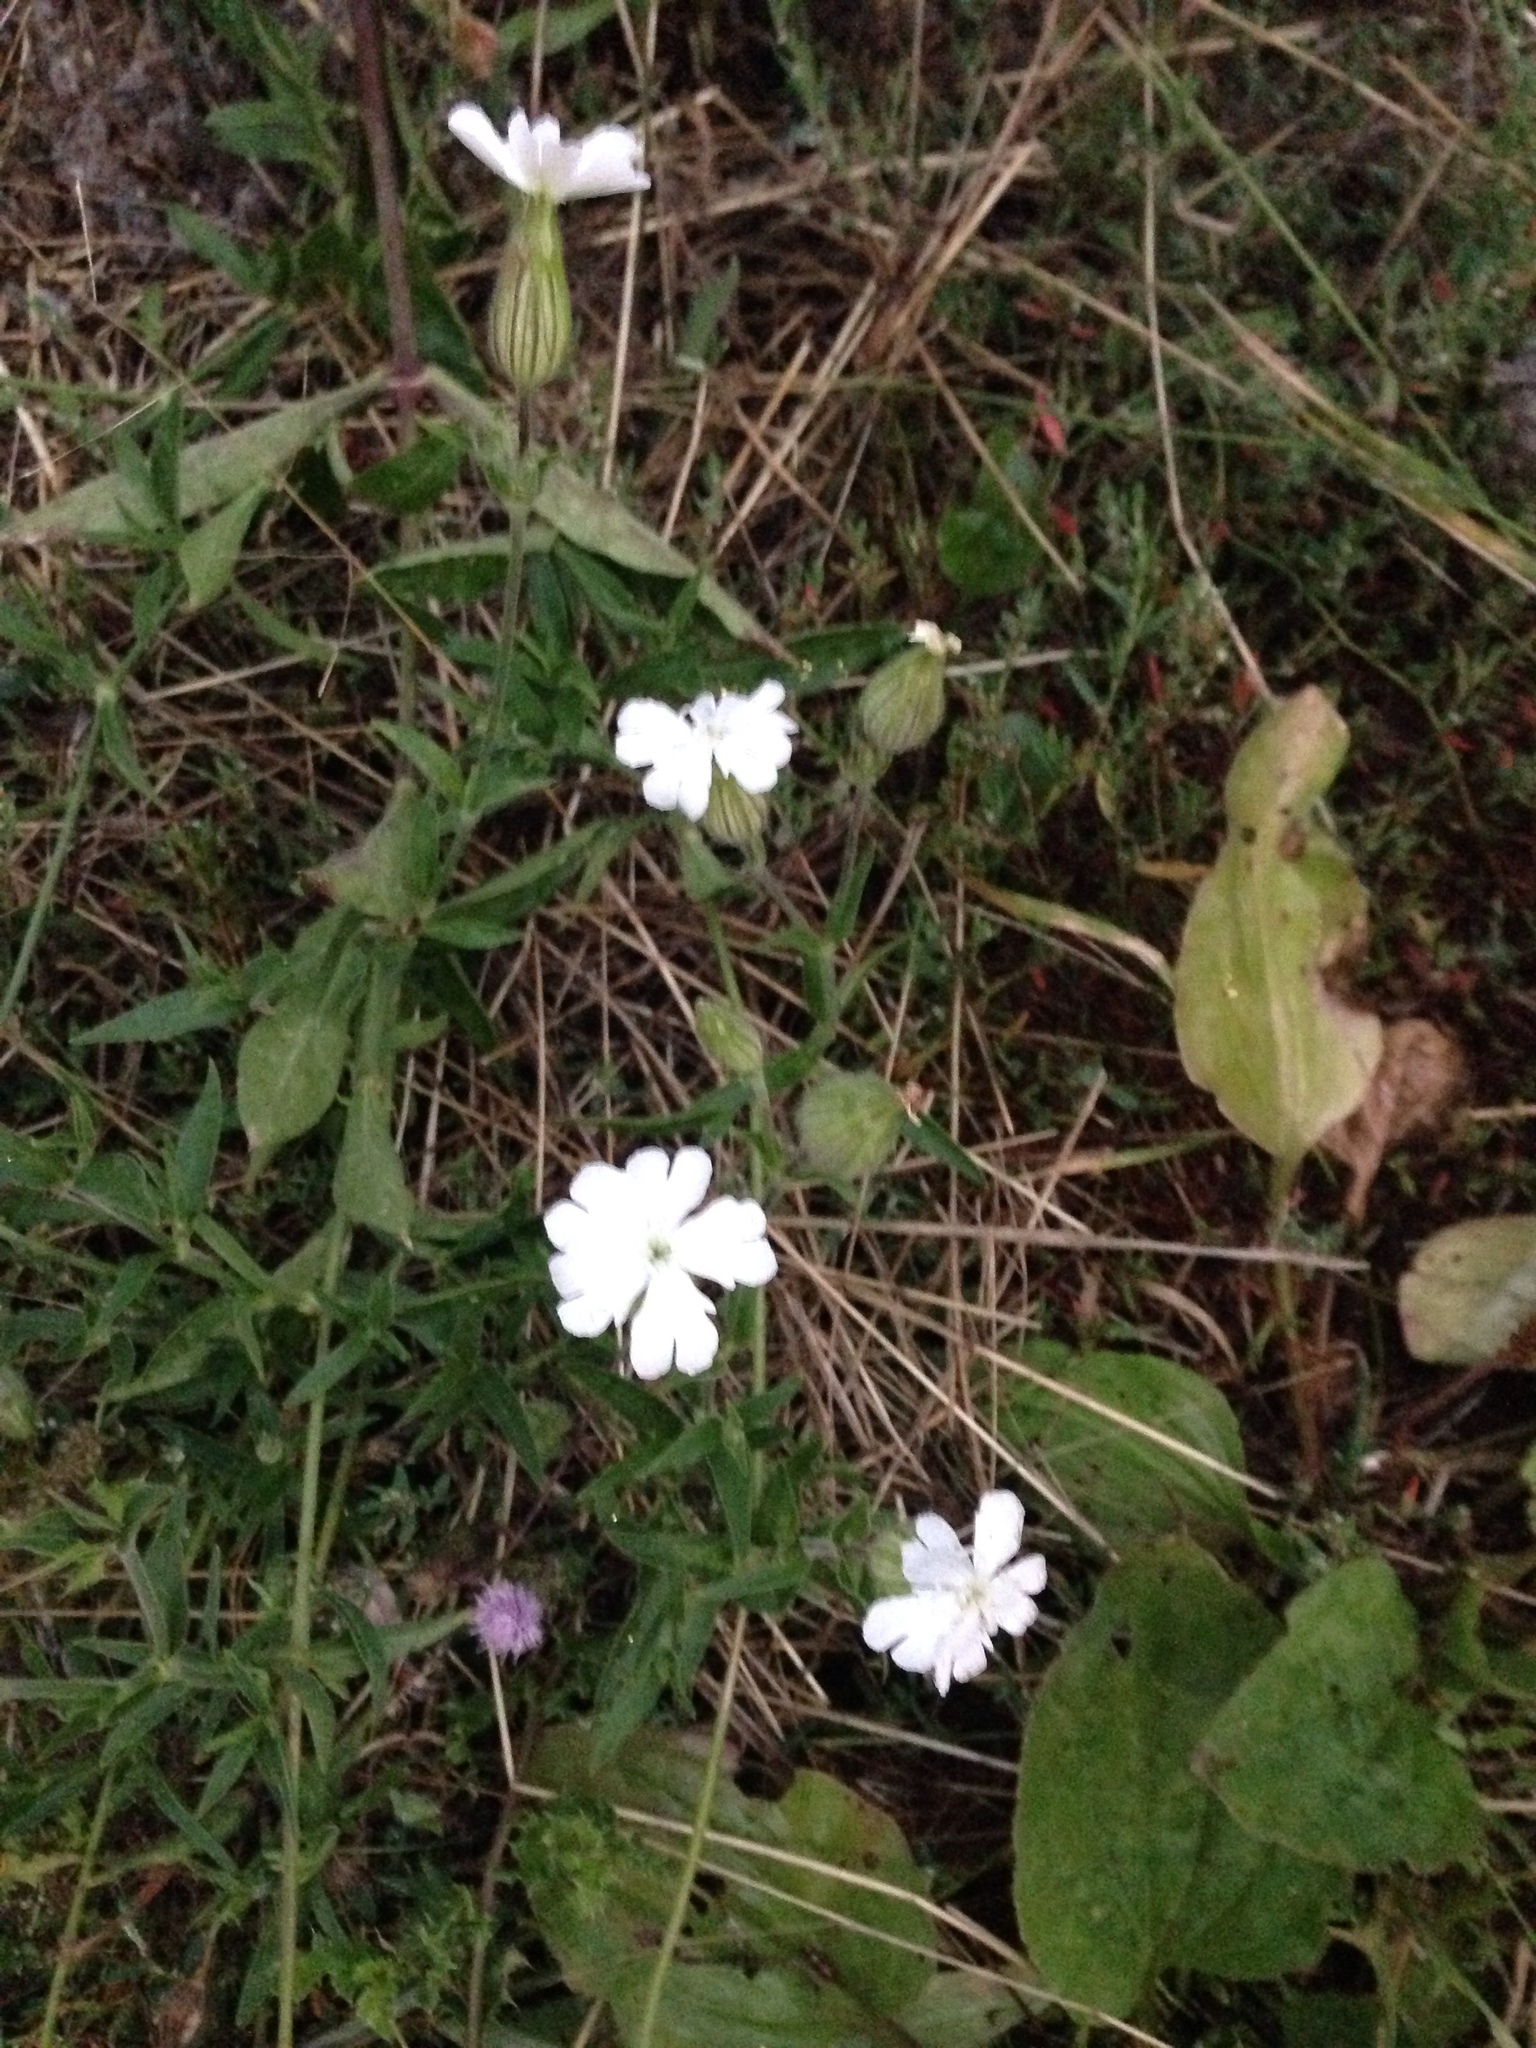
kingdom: Plantae
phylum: Tracheophyta
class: Magnoliopsida
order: Caryophyllales
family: Caryophyllaceae
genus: Silene
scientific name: Silene latifolia
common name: White campion
